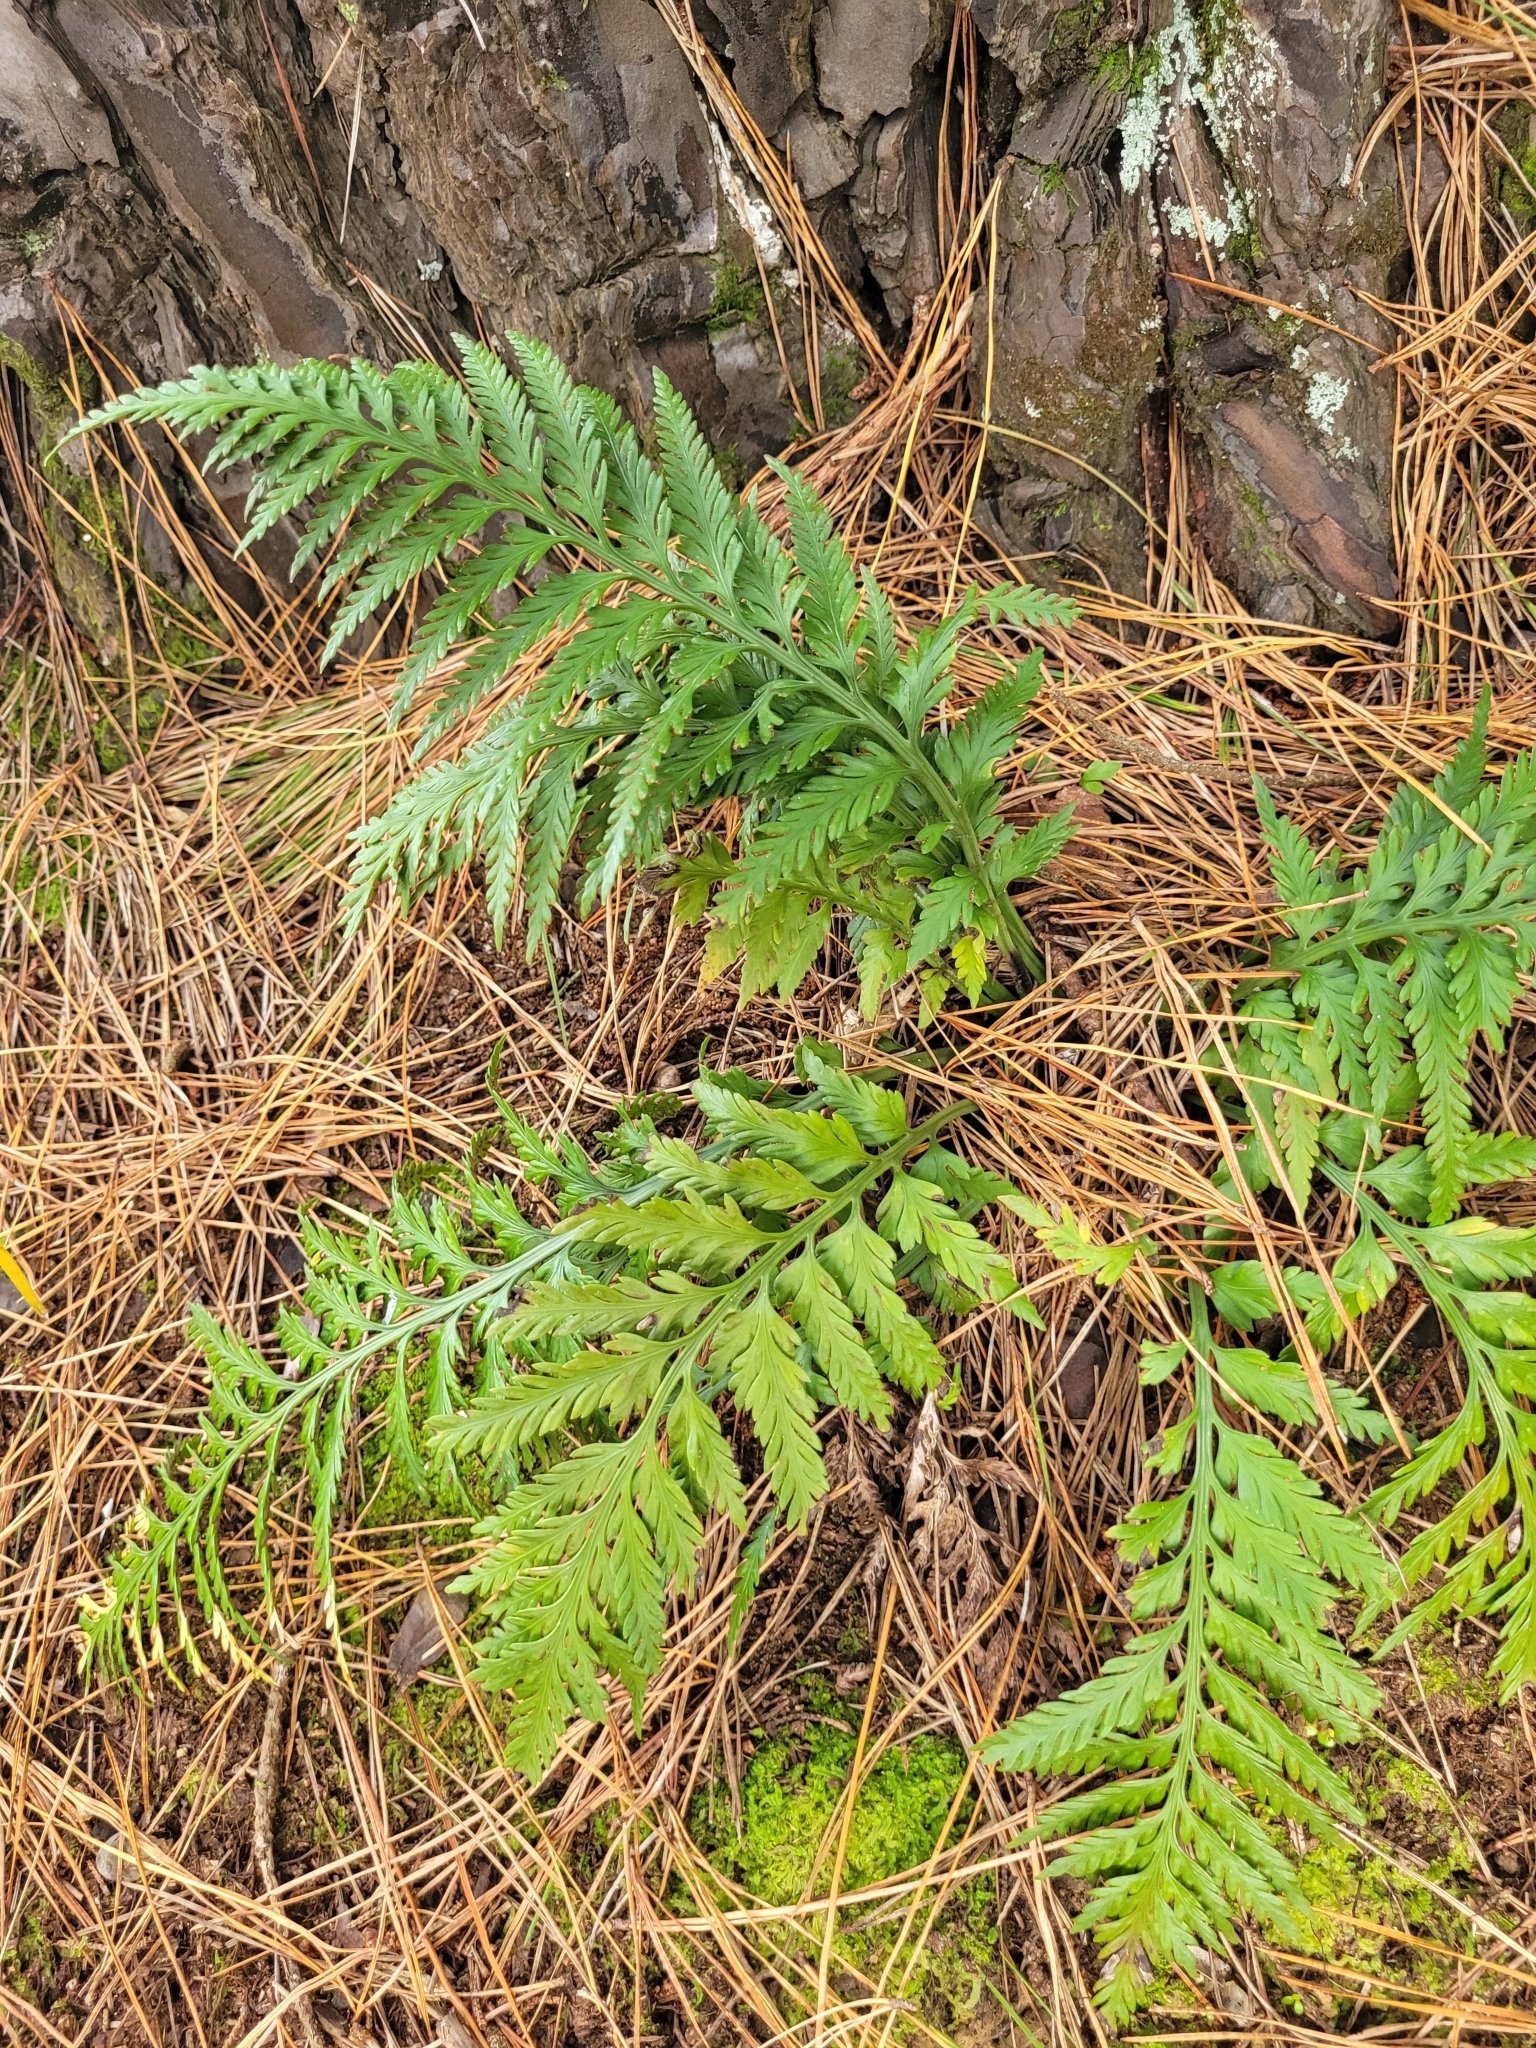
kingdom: Plantae
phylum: Tracheophyta
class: Polypodiopsida
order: Polypodiales
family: Aspleniaceae
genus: Asplenium
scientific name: Asplenium appendiculatum
